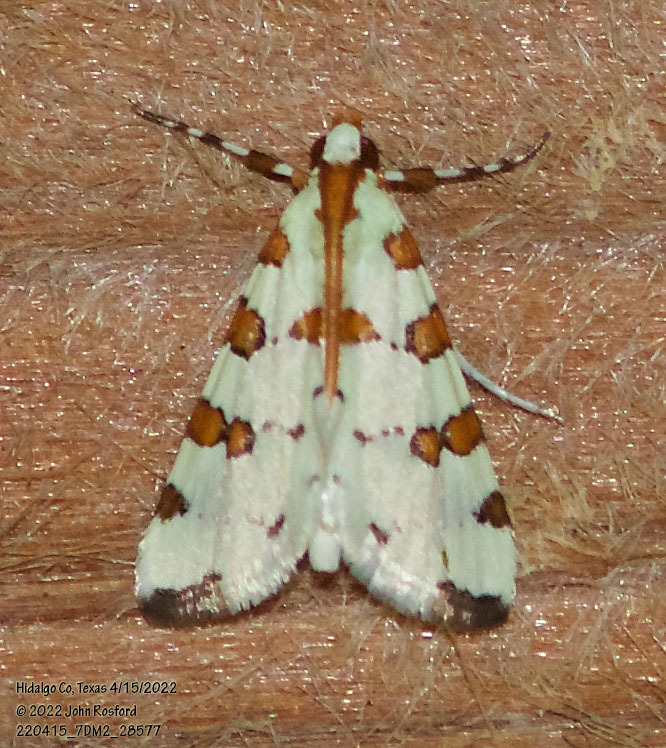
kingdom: Animalia
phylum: Arthropoda
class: Insecta
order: Lepidoptera
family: Crambidae
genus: Conchylodes
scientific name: Conchylodes
